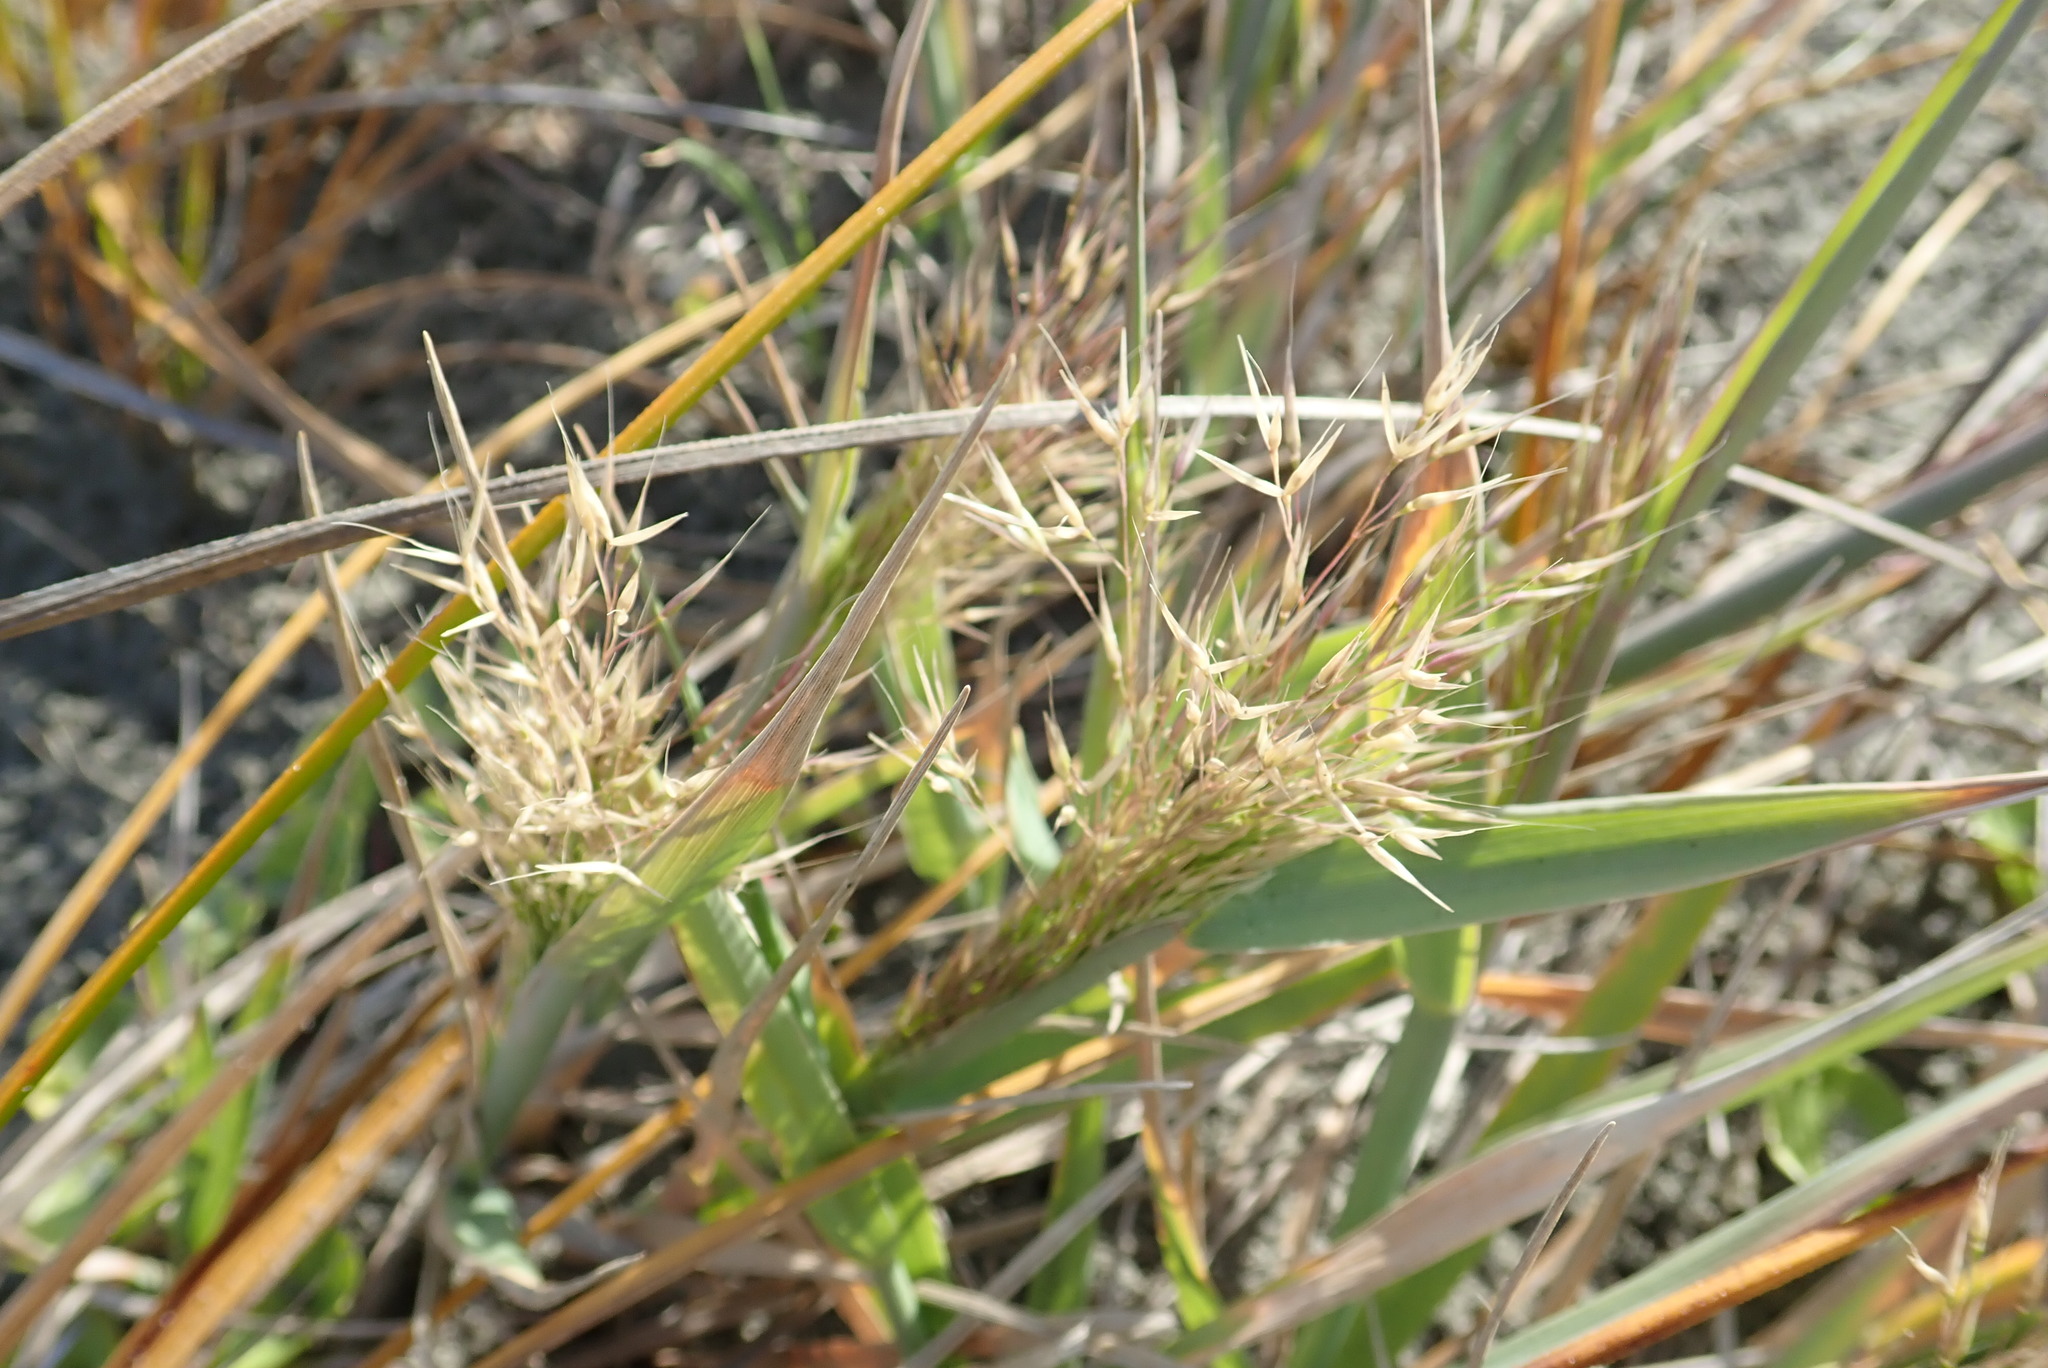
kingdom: Plantae
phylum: Tracheophyta
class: Liliopsida
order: Poales
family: Poaceae
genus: Lachnagrostis
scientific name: Lachnagrostis billardierei
